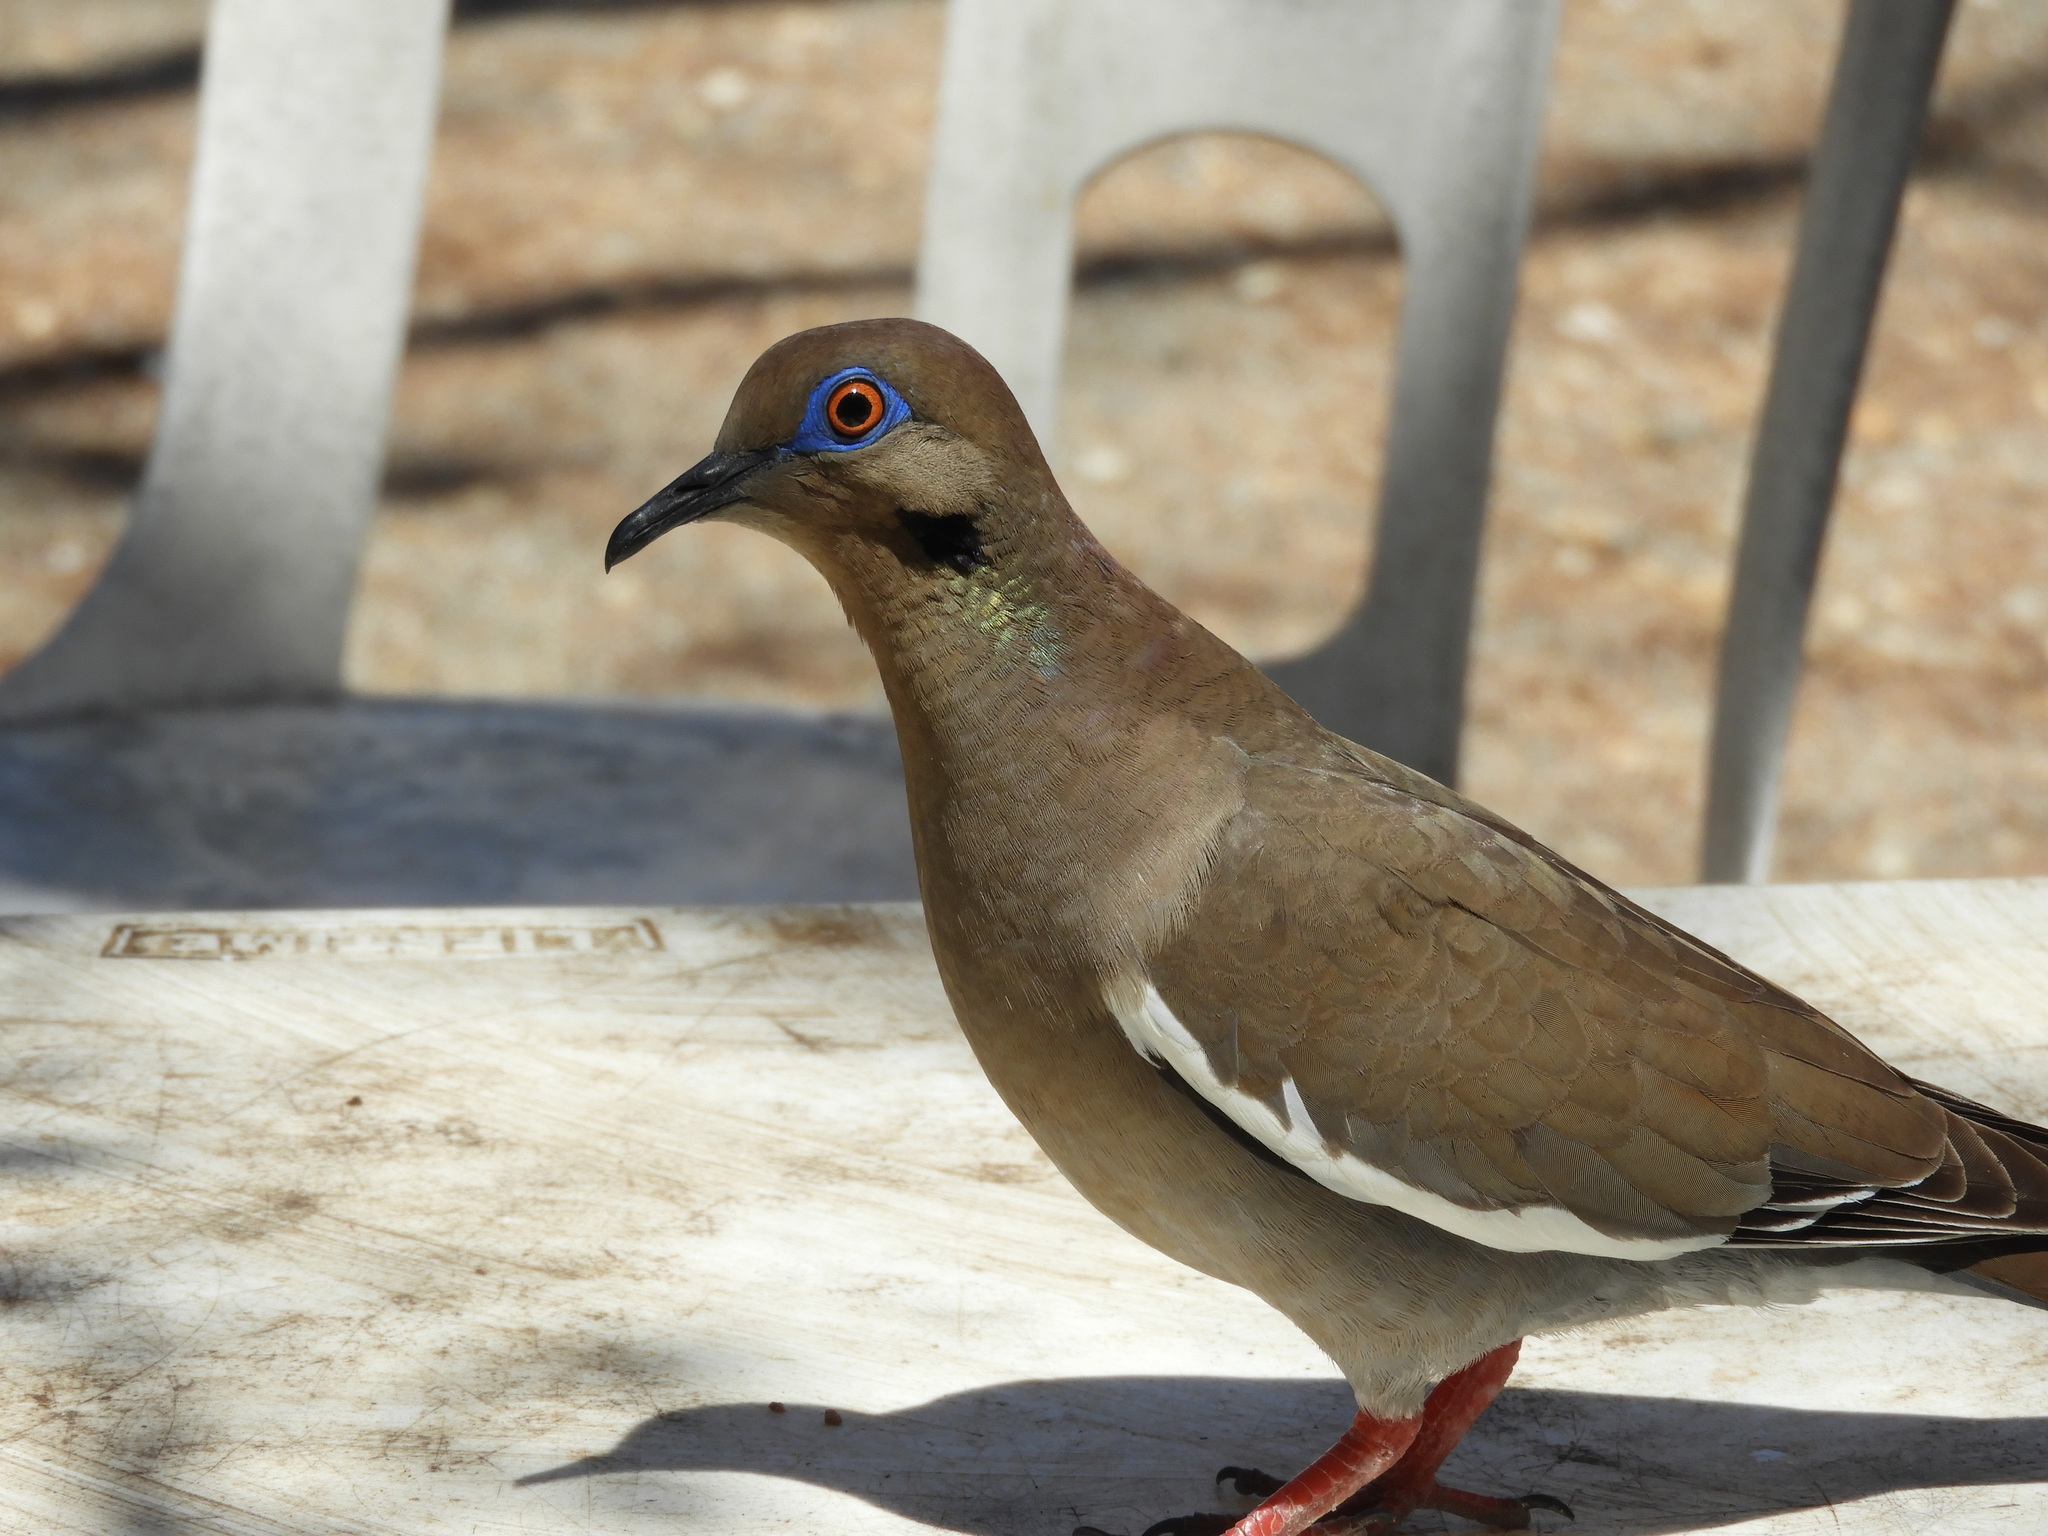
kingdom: Animalia
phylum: Chordata
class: Aves
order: Columbiformes
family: Columbidae
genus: Zenaida
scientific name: Zenaida asiatica
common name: White-winged dove
